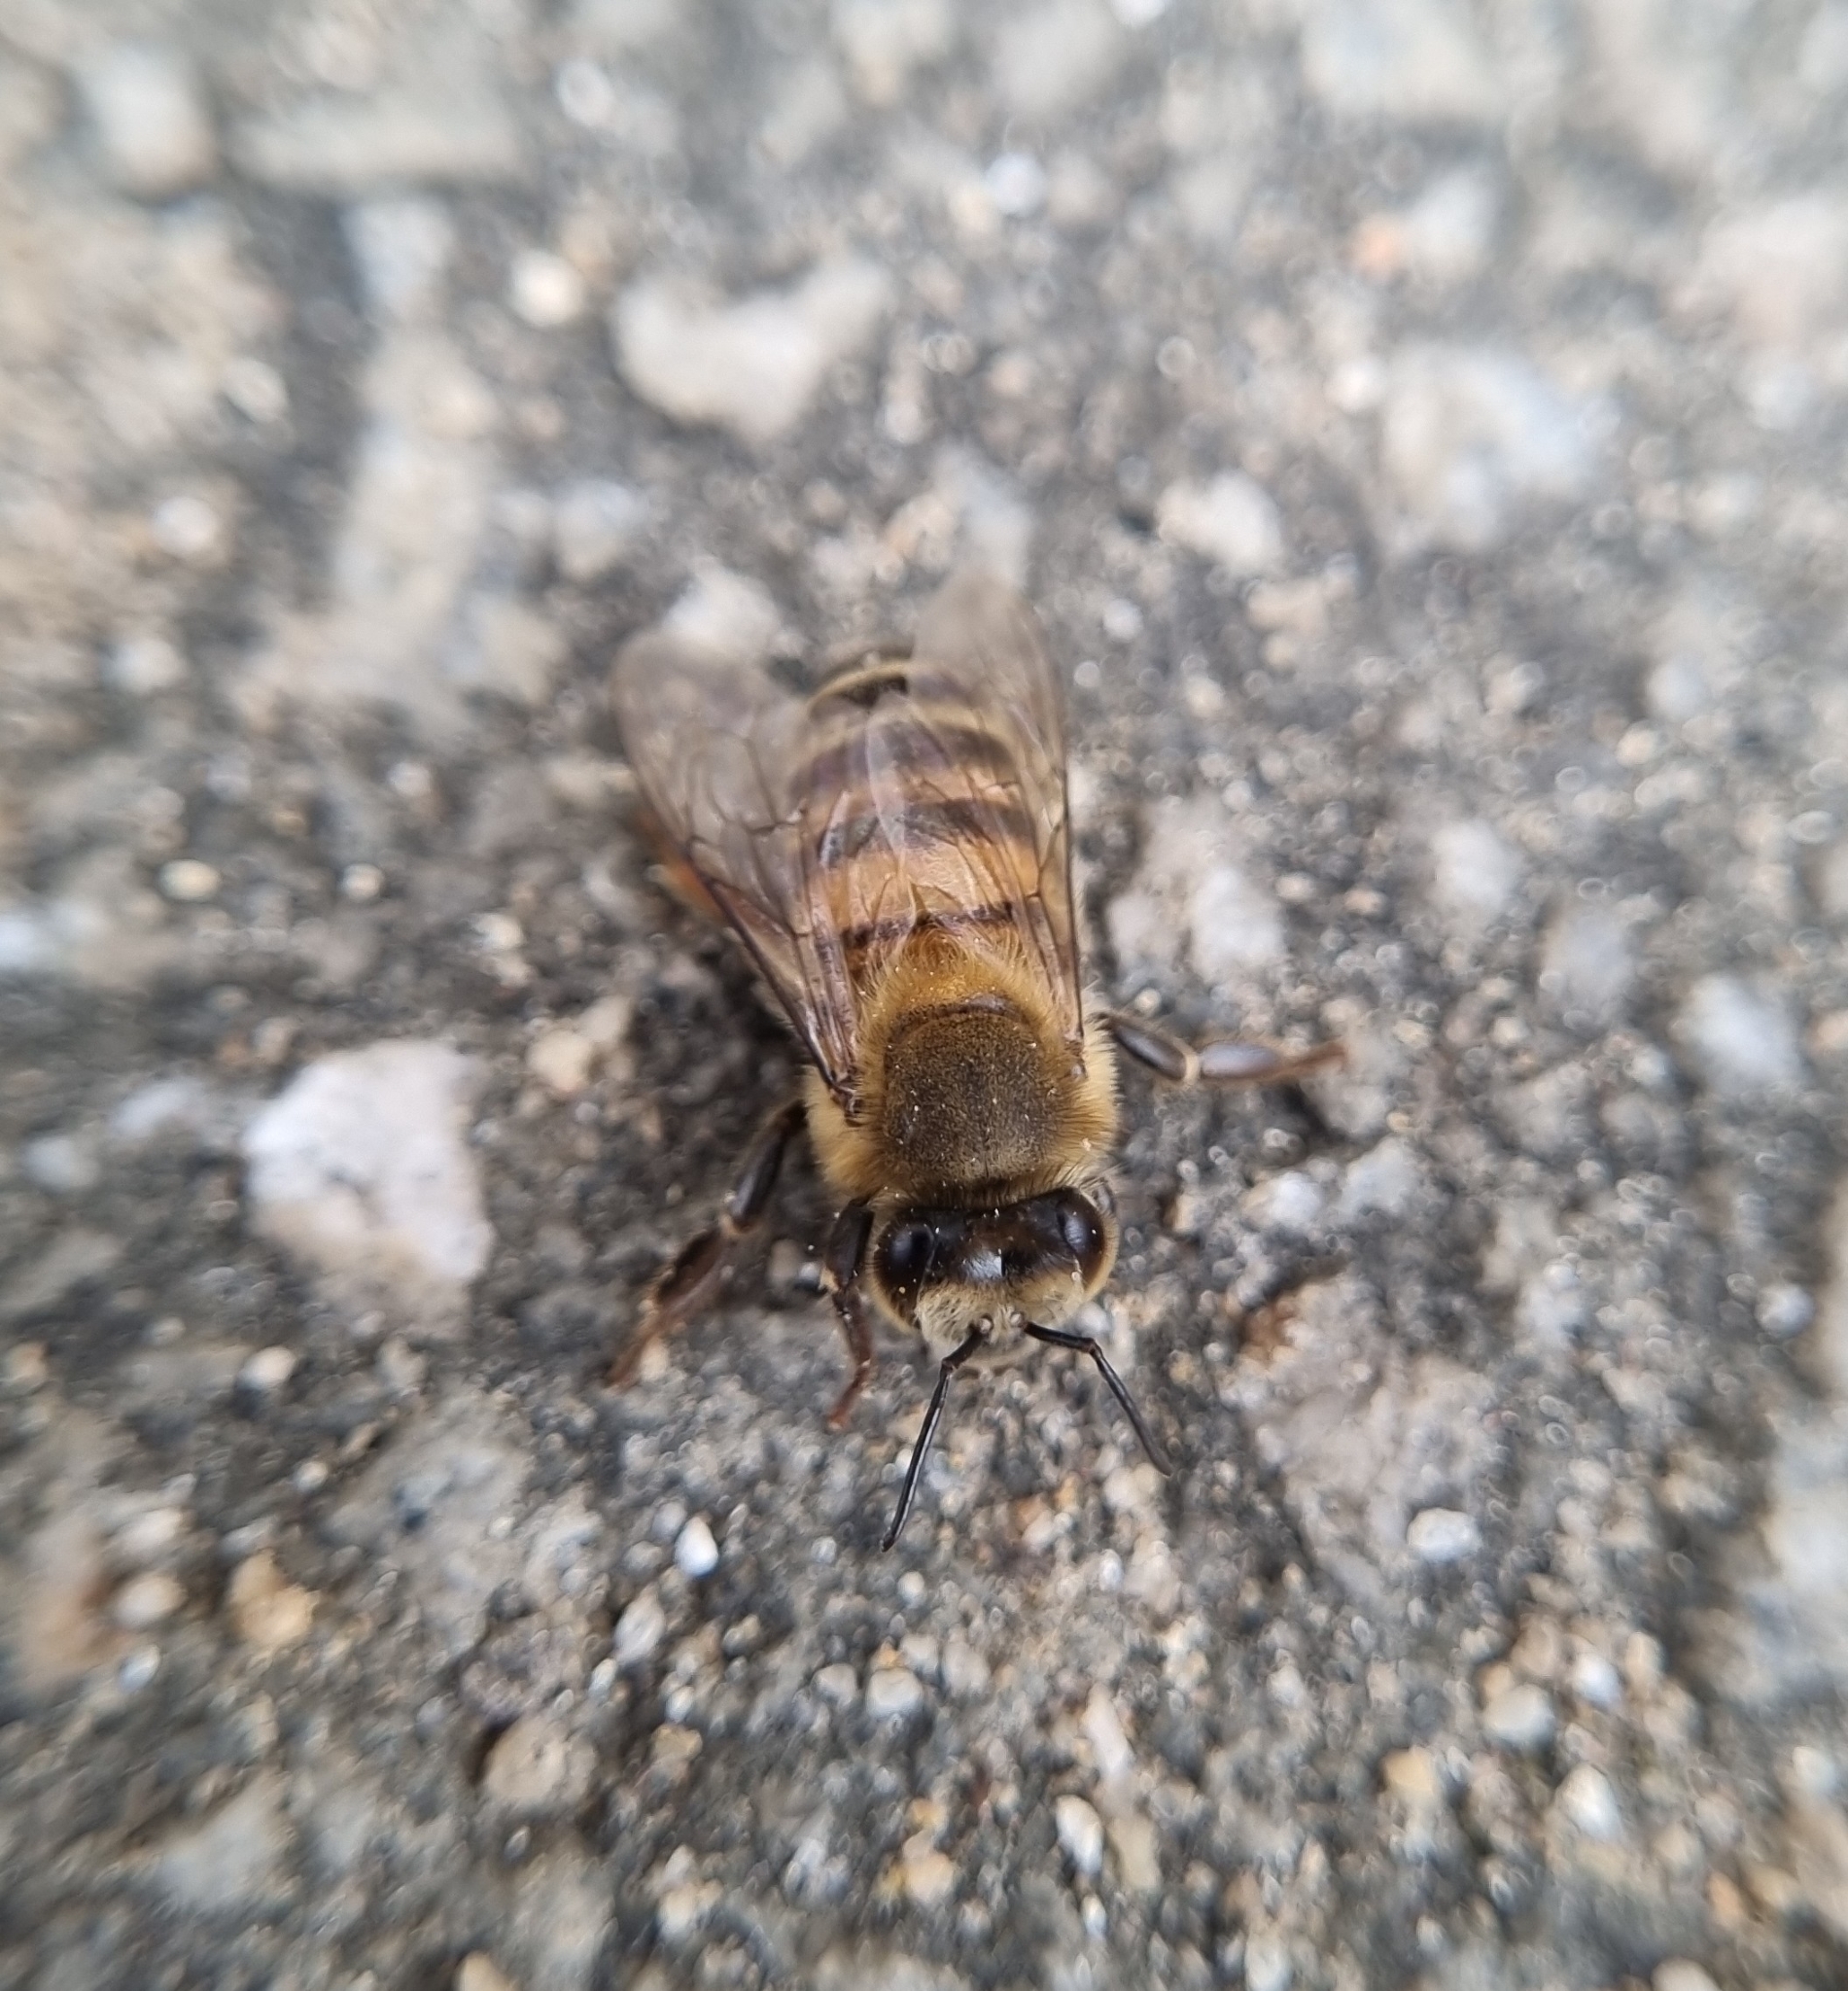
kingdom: Animalia
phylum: Arthropoda
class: Insecta
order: Hymenoptera
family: Apidae
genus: Apis
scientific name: Apis mellifera
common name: Honey bee
